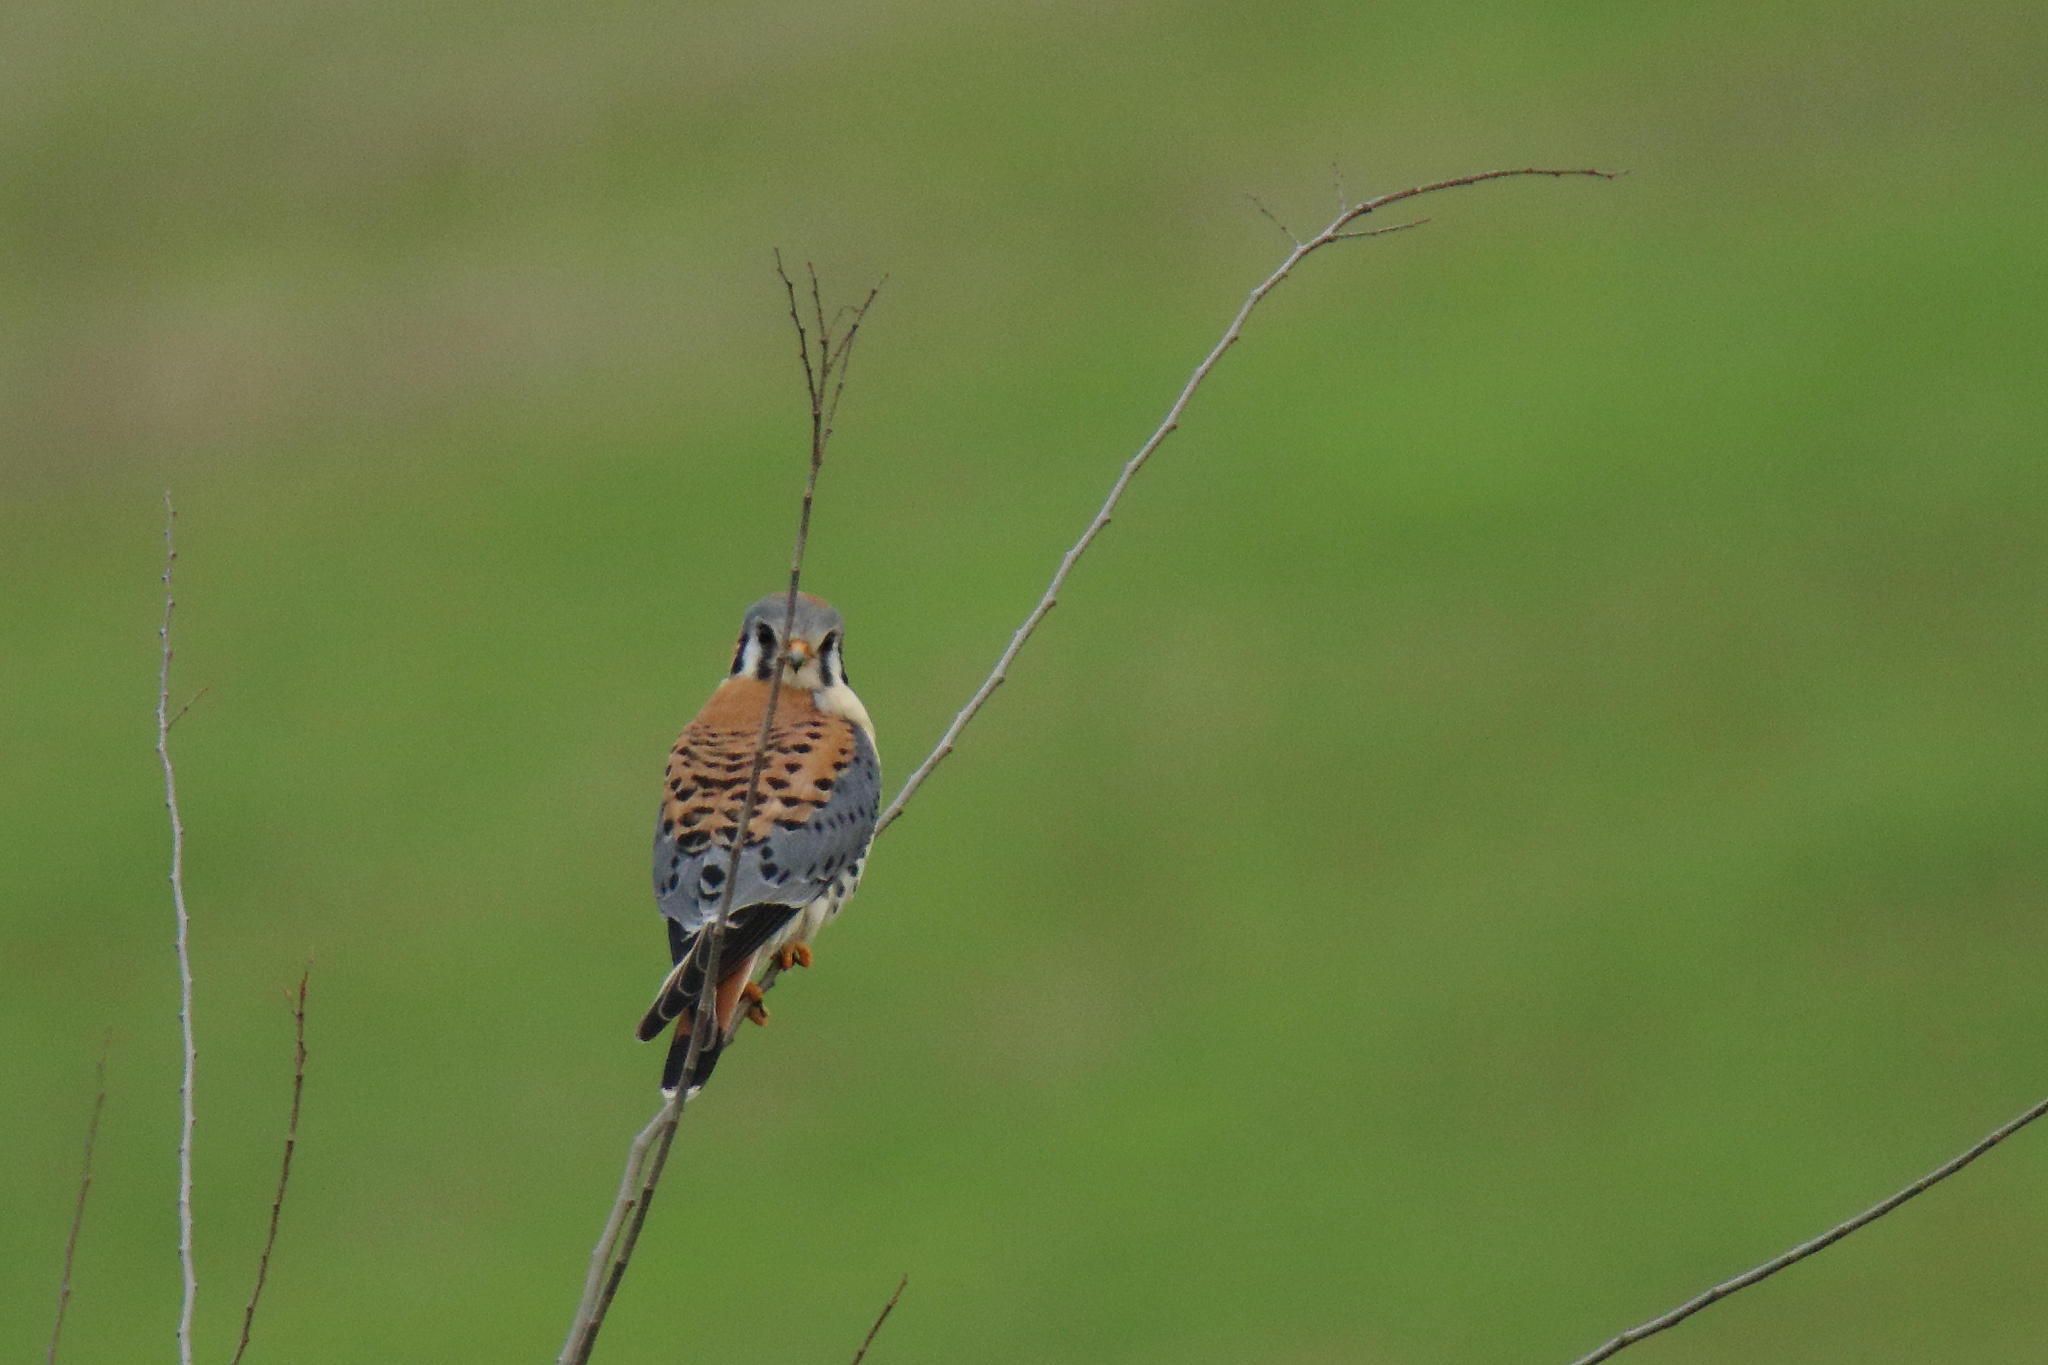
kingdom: Animalia
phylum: Chordata
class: Aves
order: Falconiformes
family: Falconidae
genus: Falco
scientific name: Falco sparverius
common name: American kestrel
